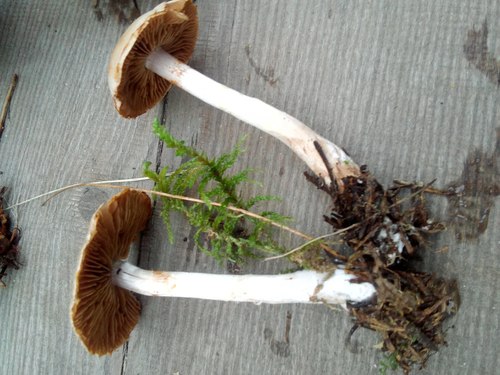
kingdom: Fungi
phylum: Basidiomycota
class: Agaricomycetes
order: Agaricales
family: Cortinariaceae
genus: Cortinarius
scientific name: Cortinarius
